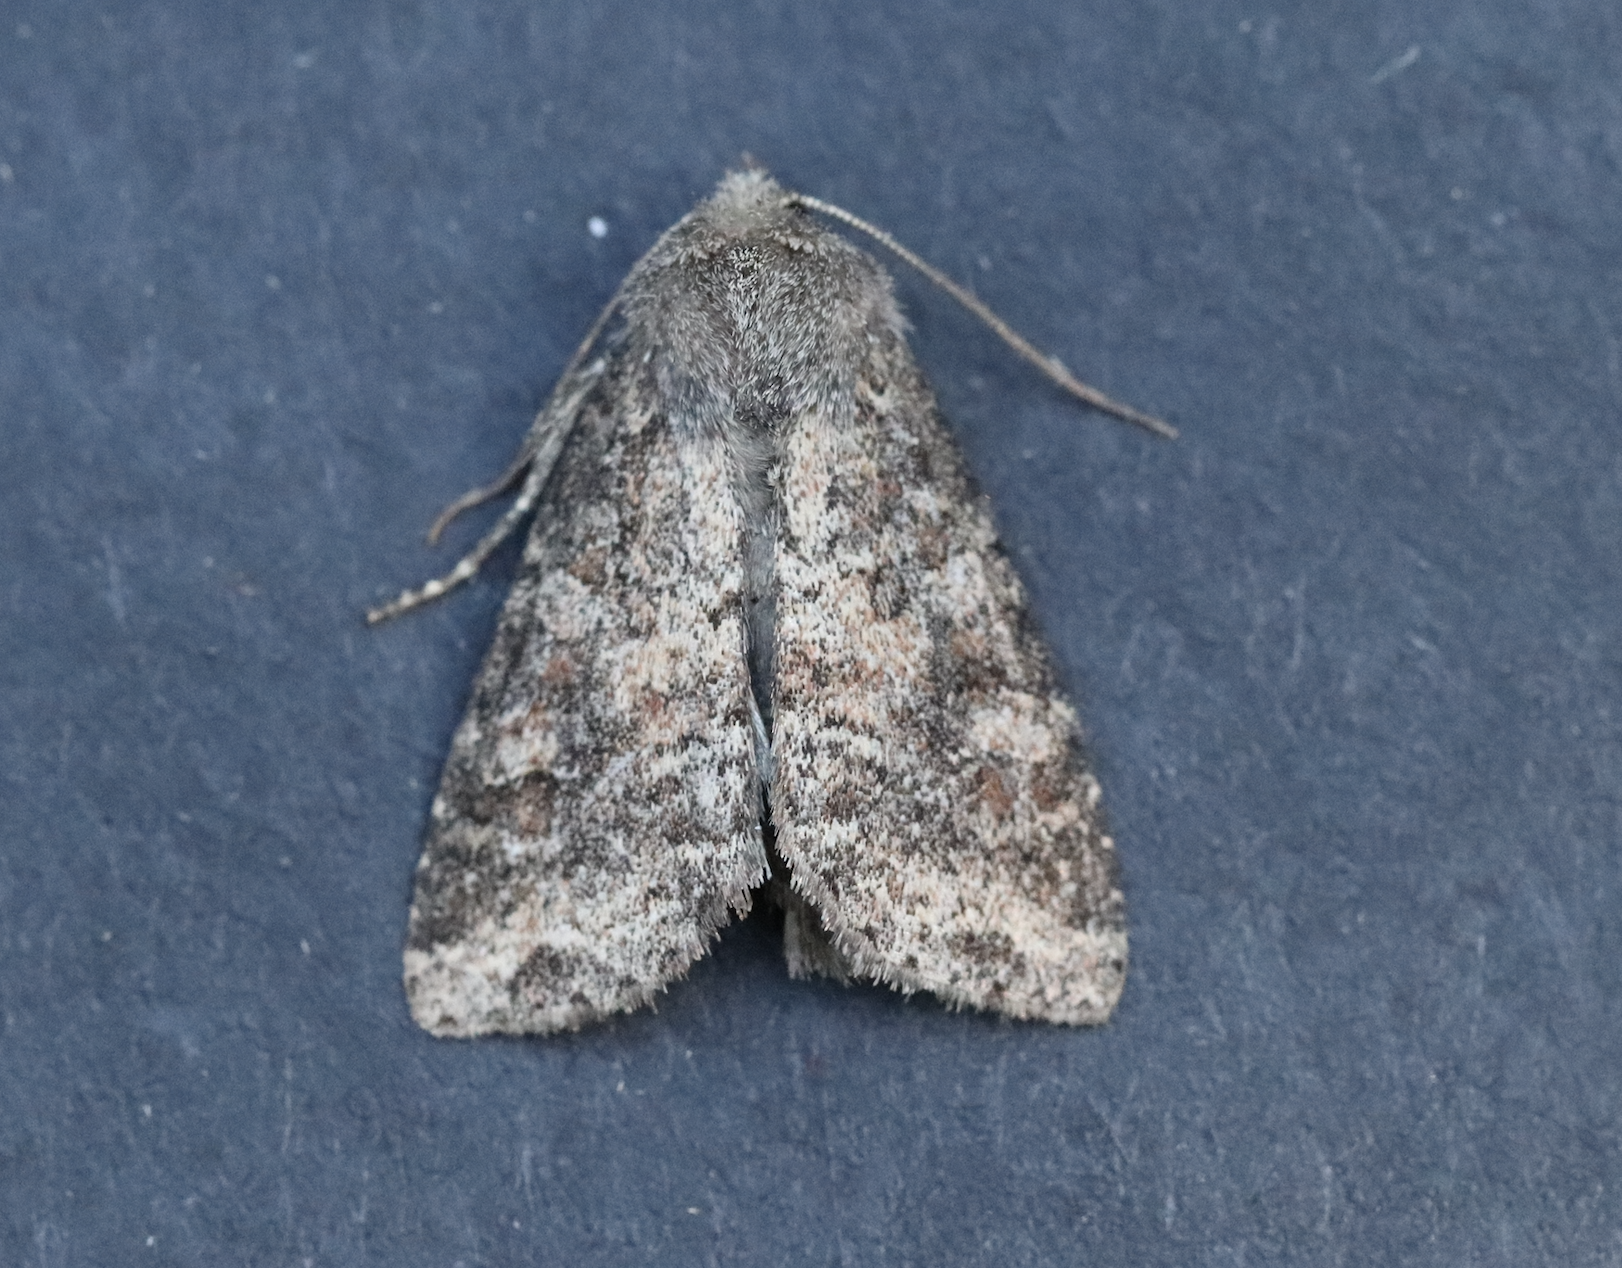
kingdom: Animalia
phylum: Arthropoda
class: Insecta
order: Lepidoptera
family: Noctuidae
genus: Parastichtis
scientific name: Parastichtis suspecta
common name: Suspected
